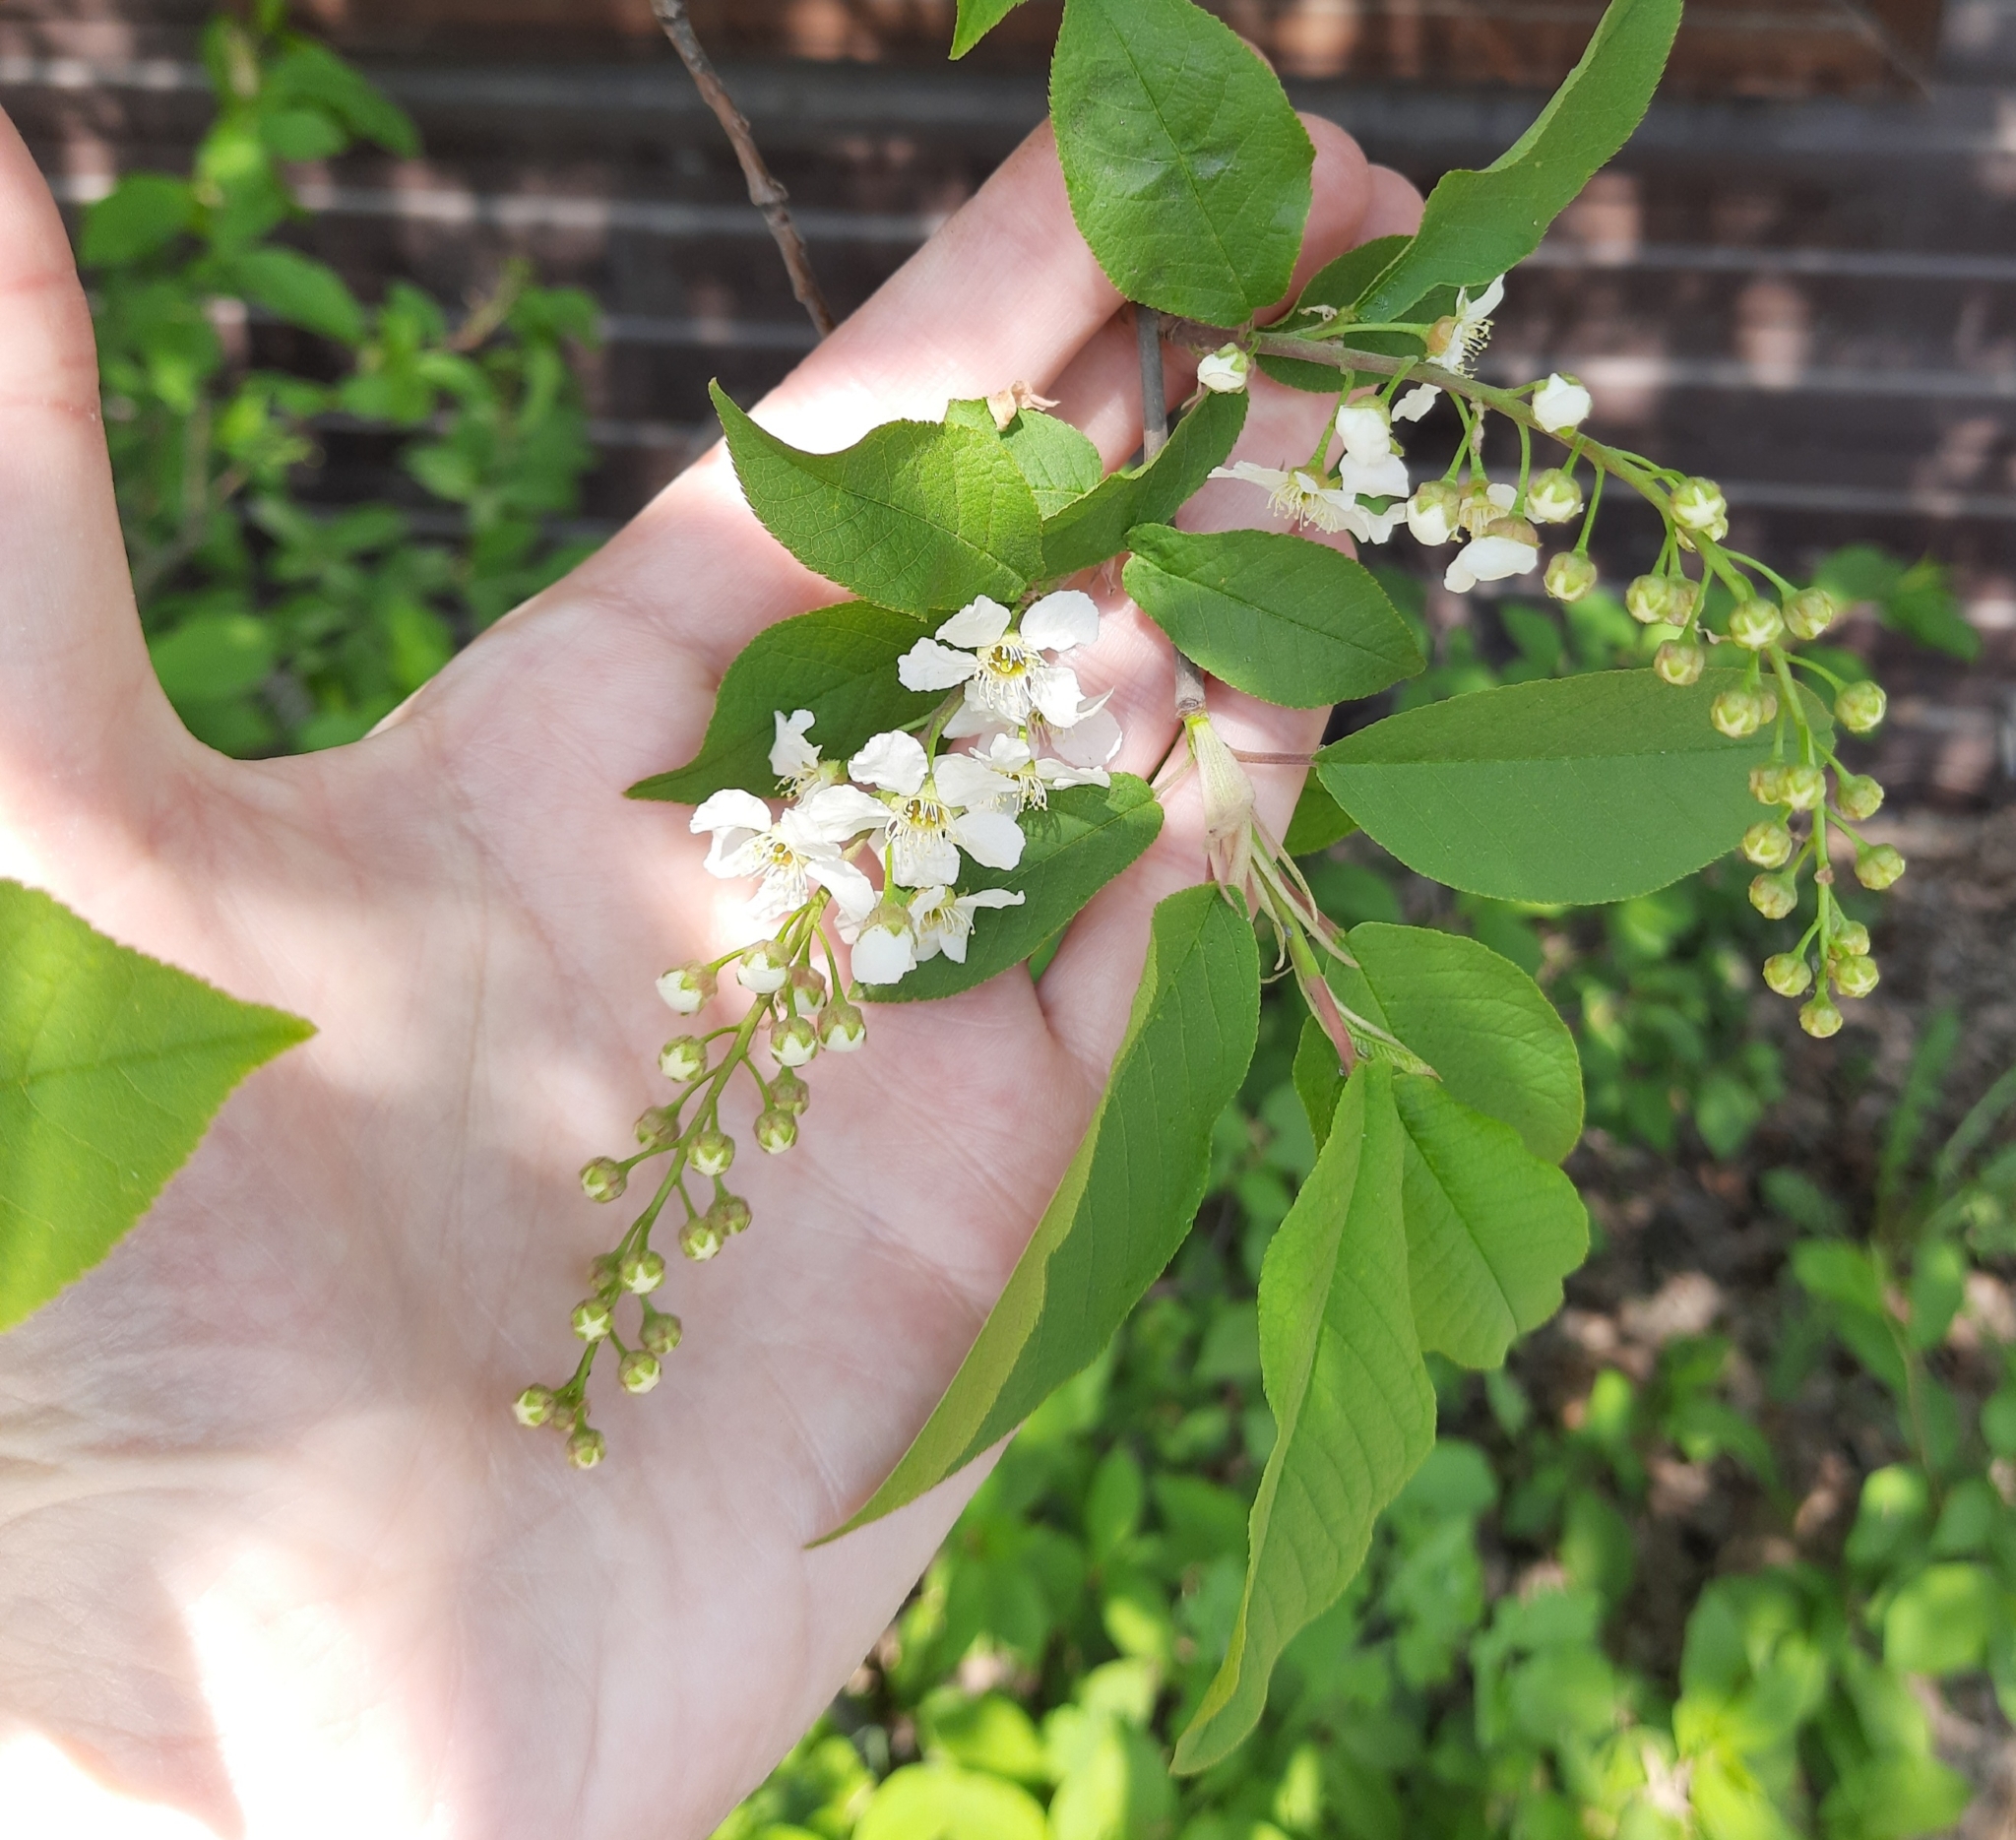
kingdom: Plantae
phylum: Tracheophyta
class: Magnoliopsida
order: Rosales
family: Rosaceae
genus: Prunus
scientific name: Prunus padus
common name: Bird cherry
